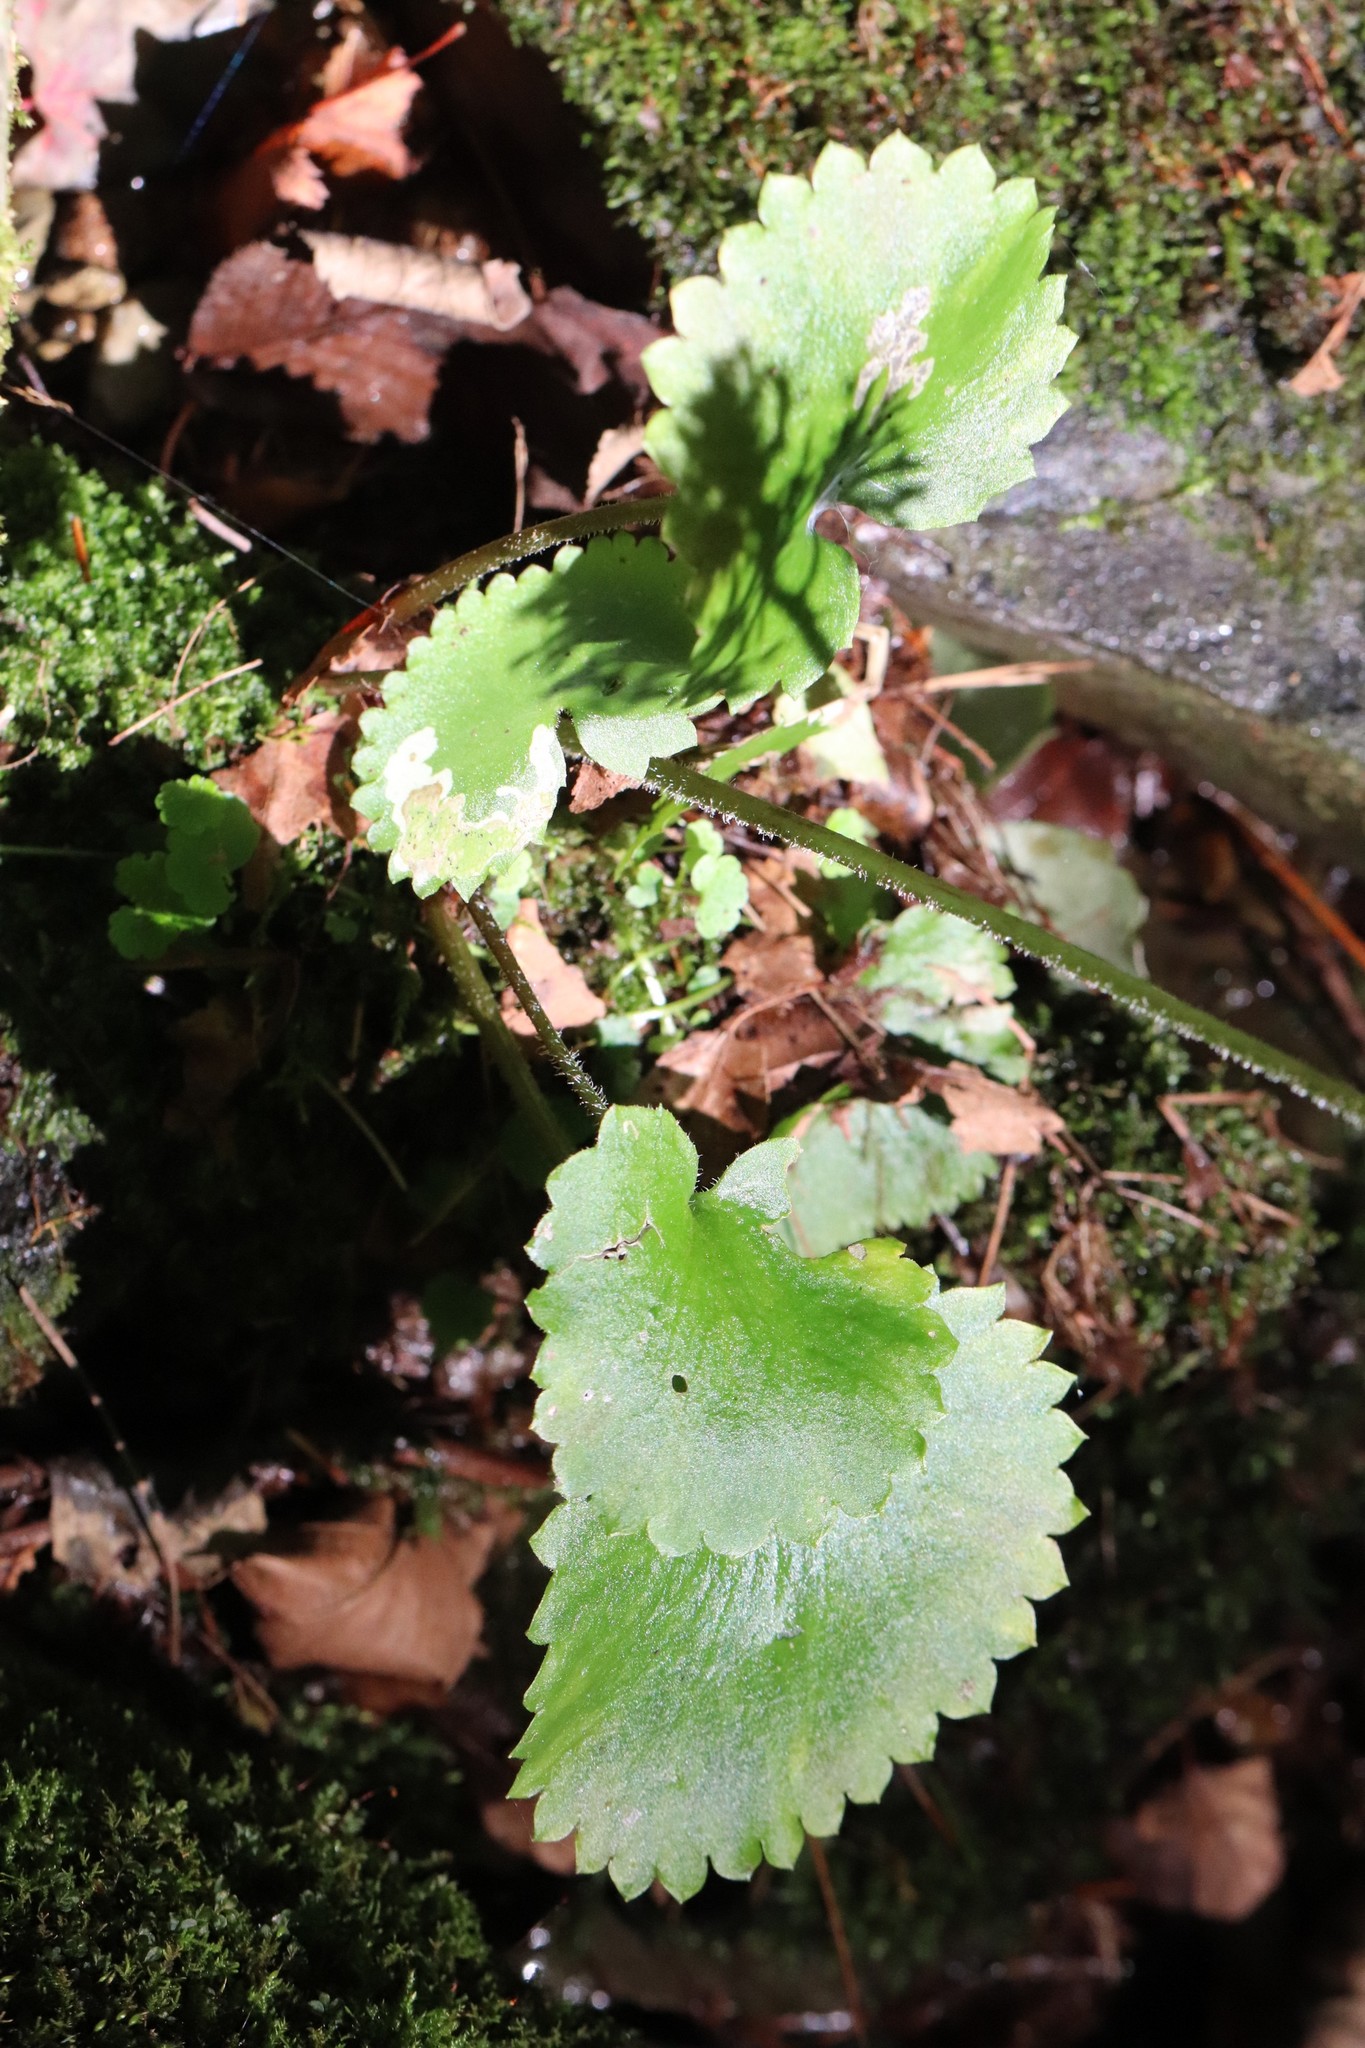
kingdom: Plantae
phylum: Tracheophyta
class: Magnoliopsida
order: Saxifragales
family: Saxifragaceae
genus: Micranthes
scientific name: Micranthes manchuriensis
